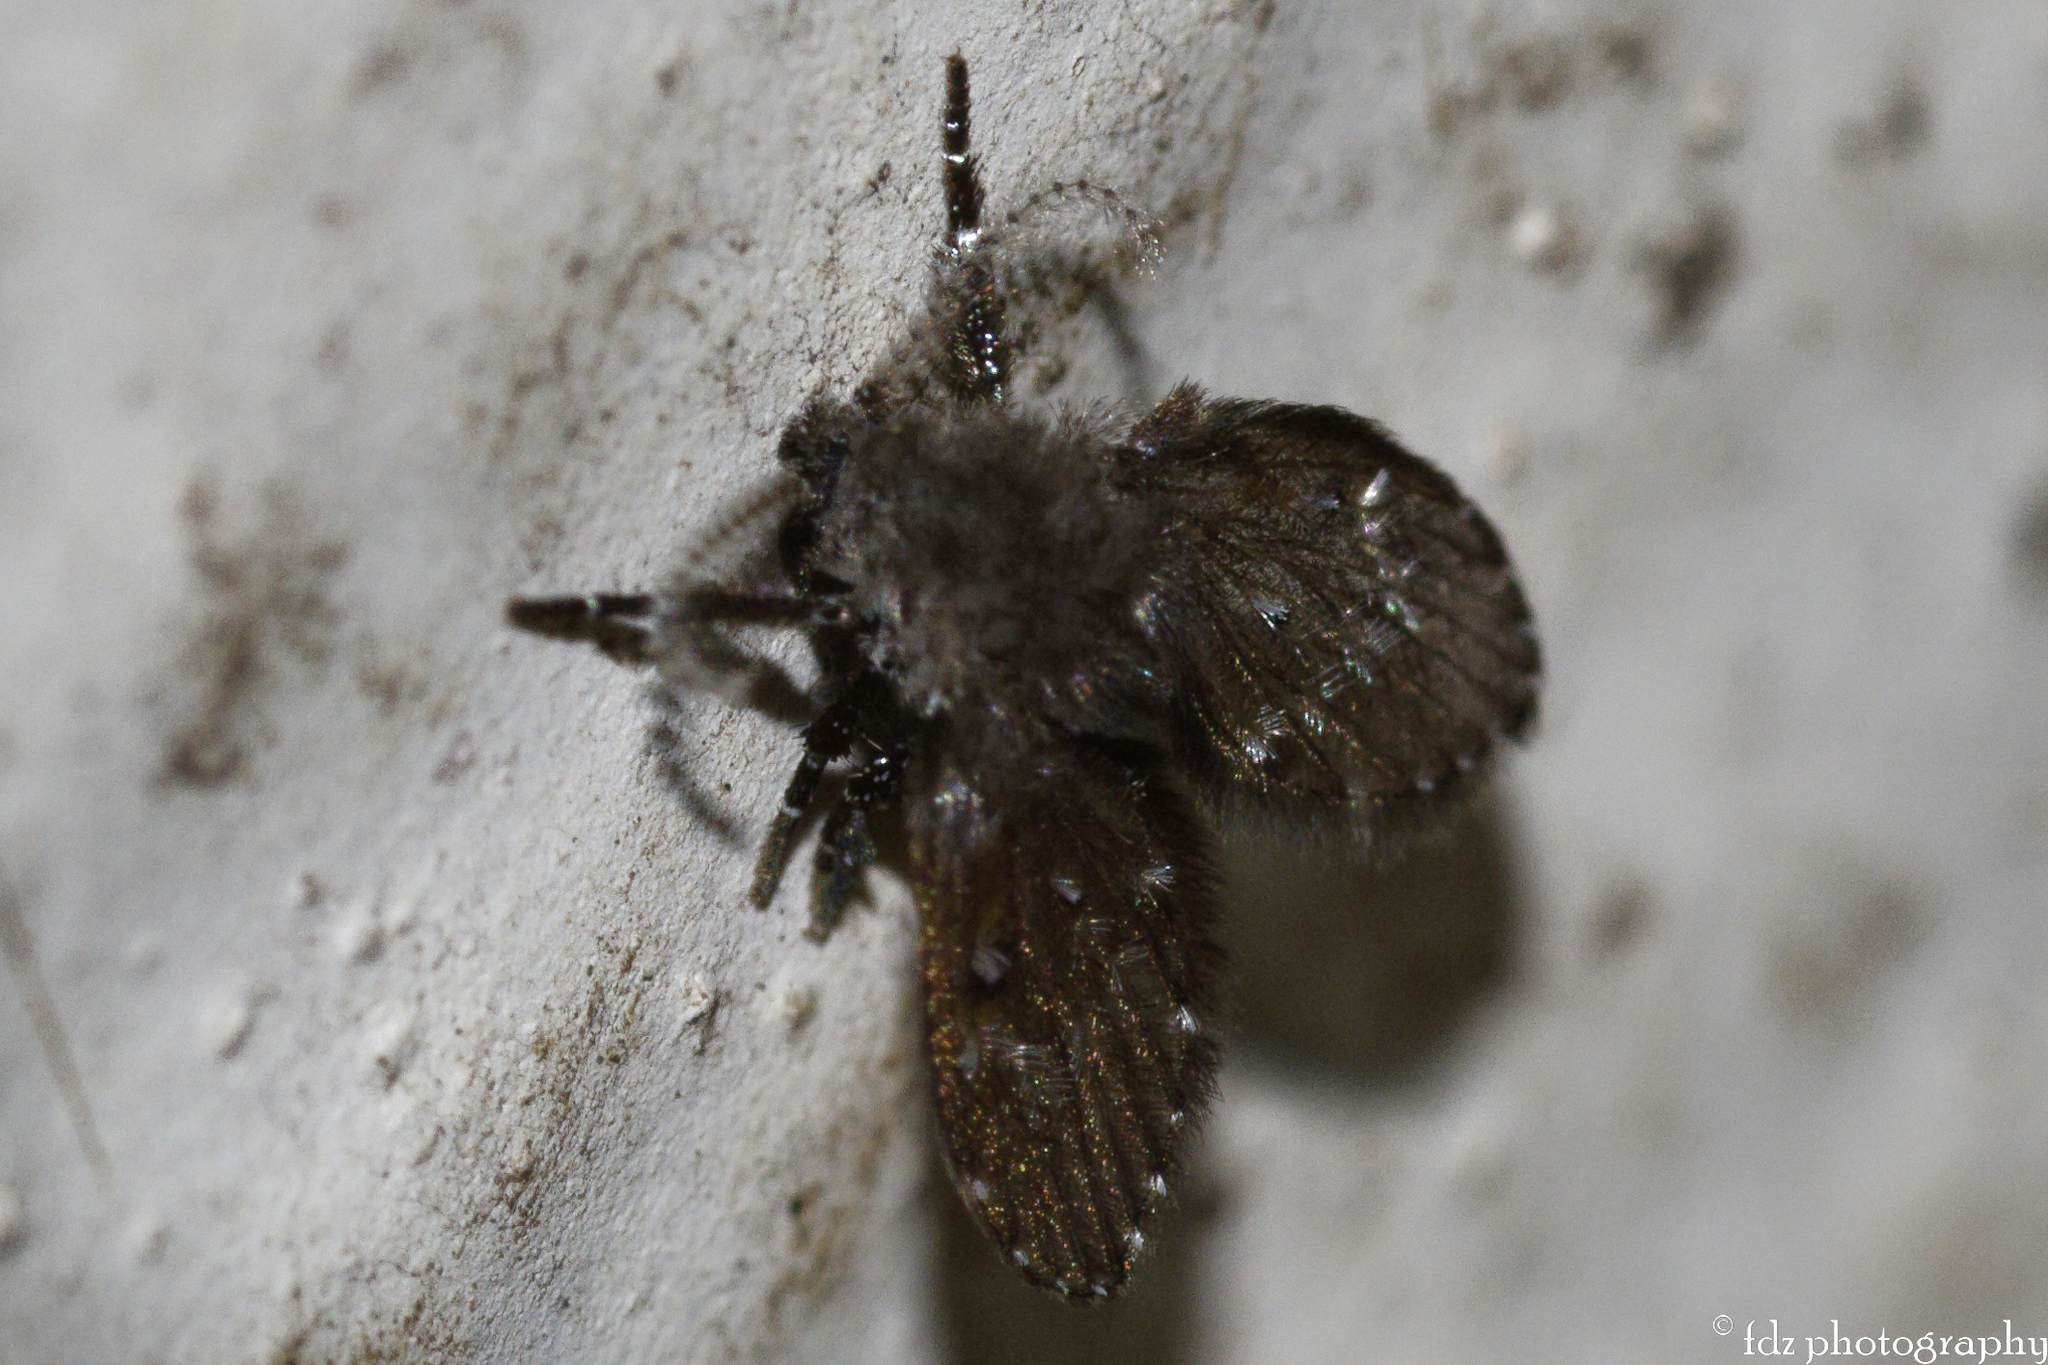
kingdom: Animalia
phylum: Arthropoda
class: Insecta
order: Diptera
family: Psychodidae
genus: Clogmia
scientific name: Clogmia albipunctatus
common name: White-spotted moth fly
